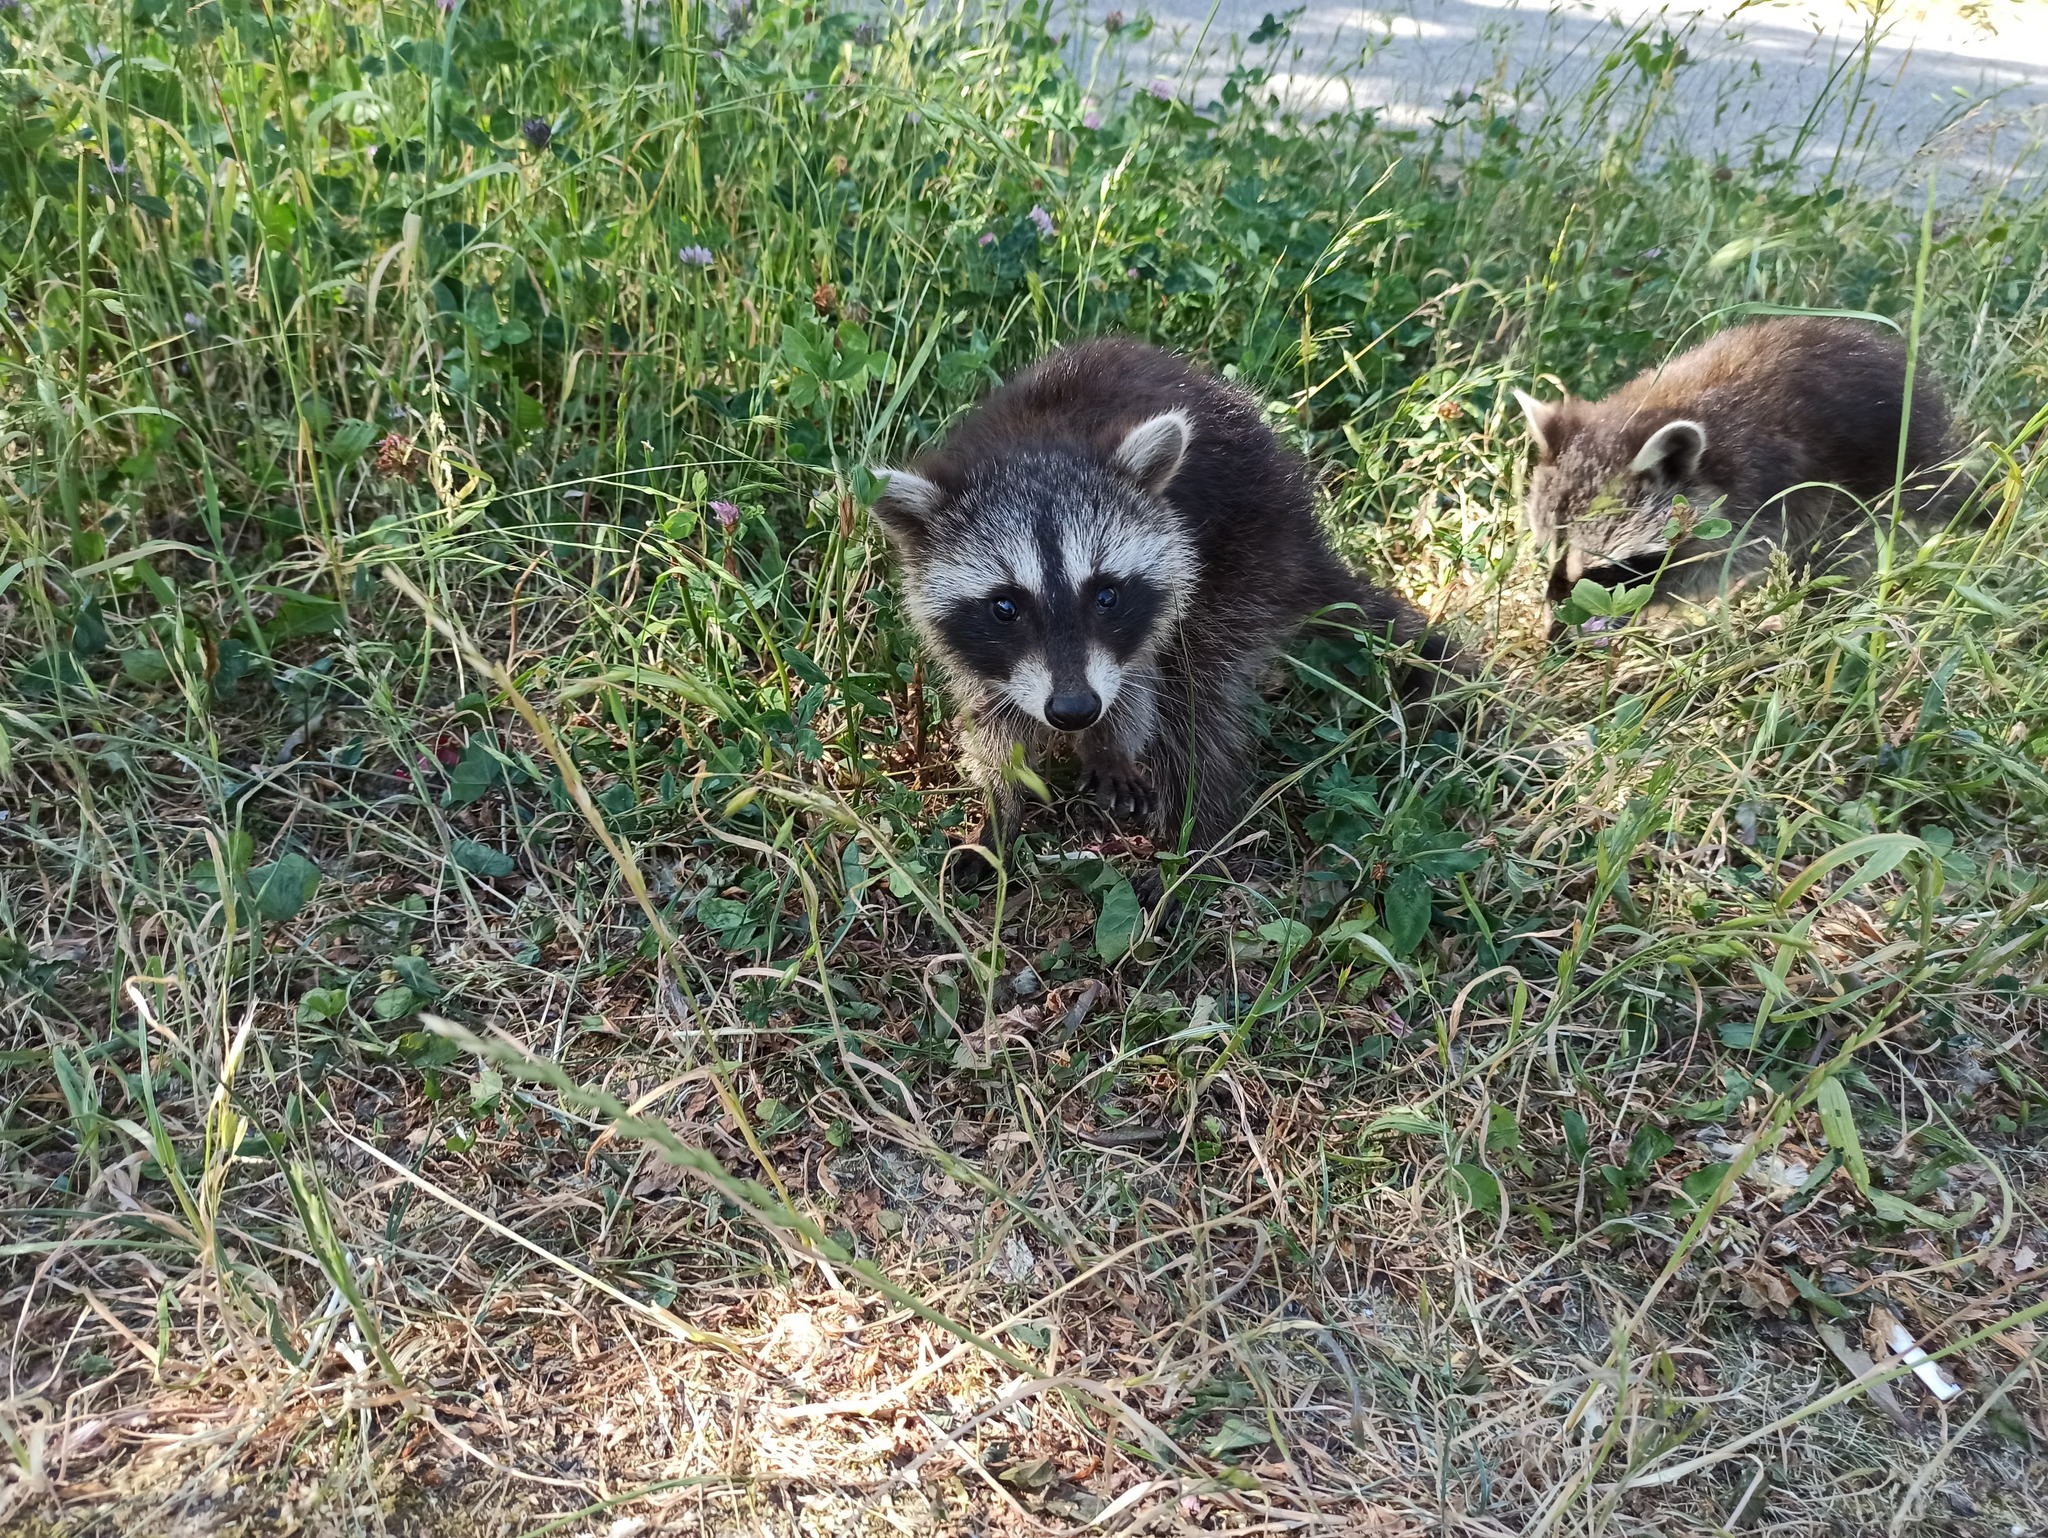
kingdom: Animalia
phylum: Chordata
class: Mammalia
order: Carnivora
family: Procyonidae
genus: Procyon
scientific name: Procyon lotor
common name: Raccoon
